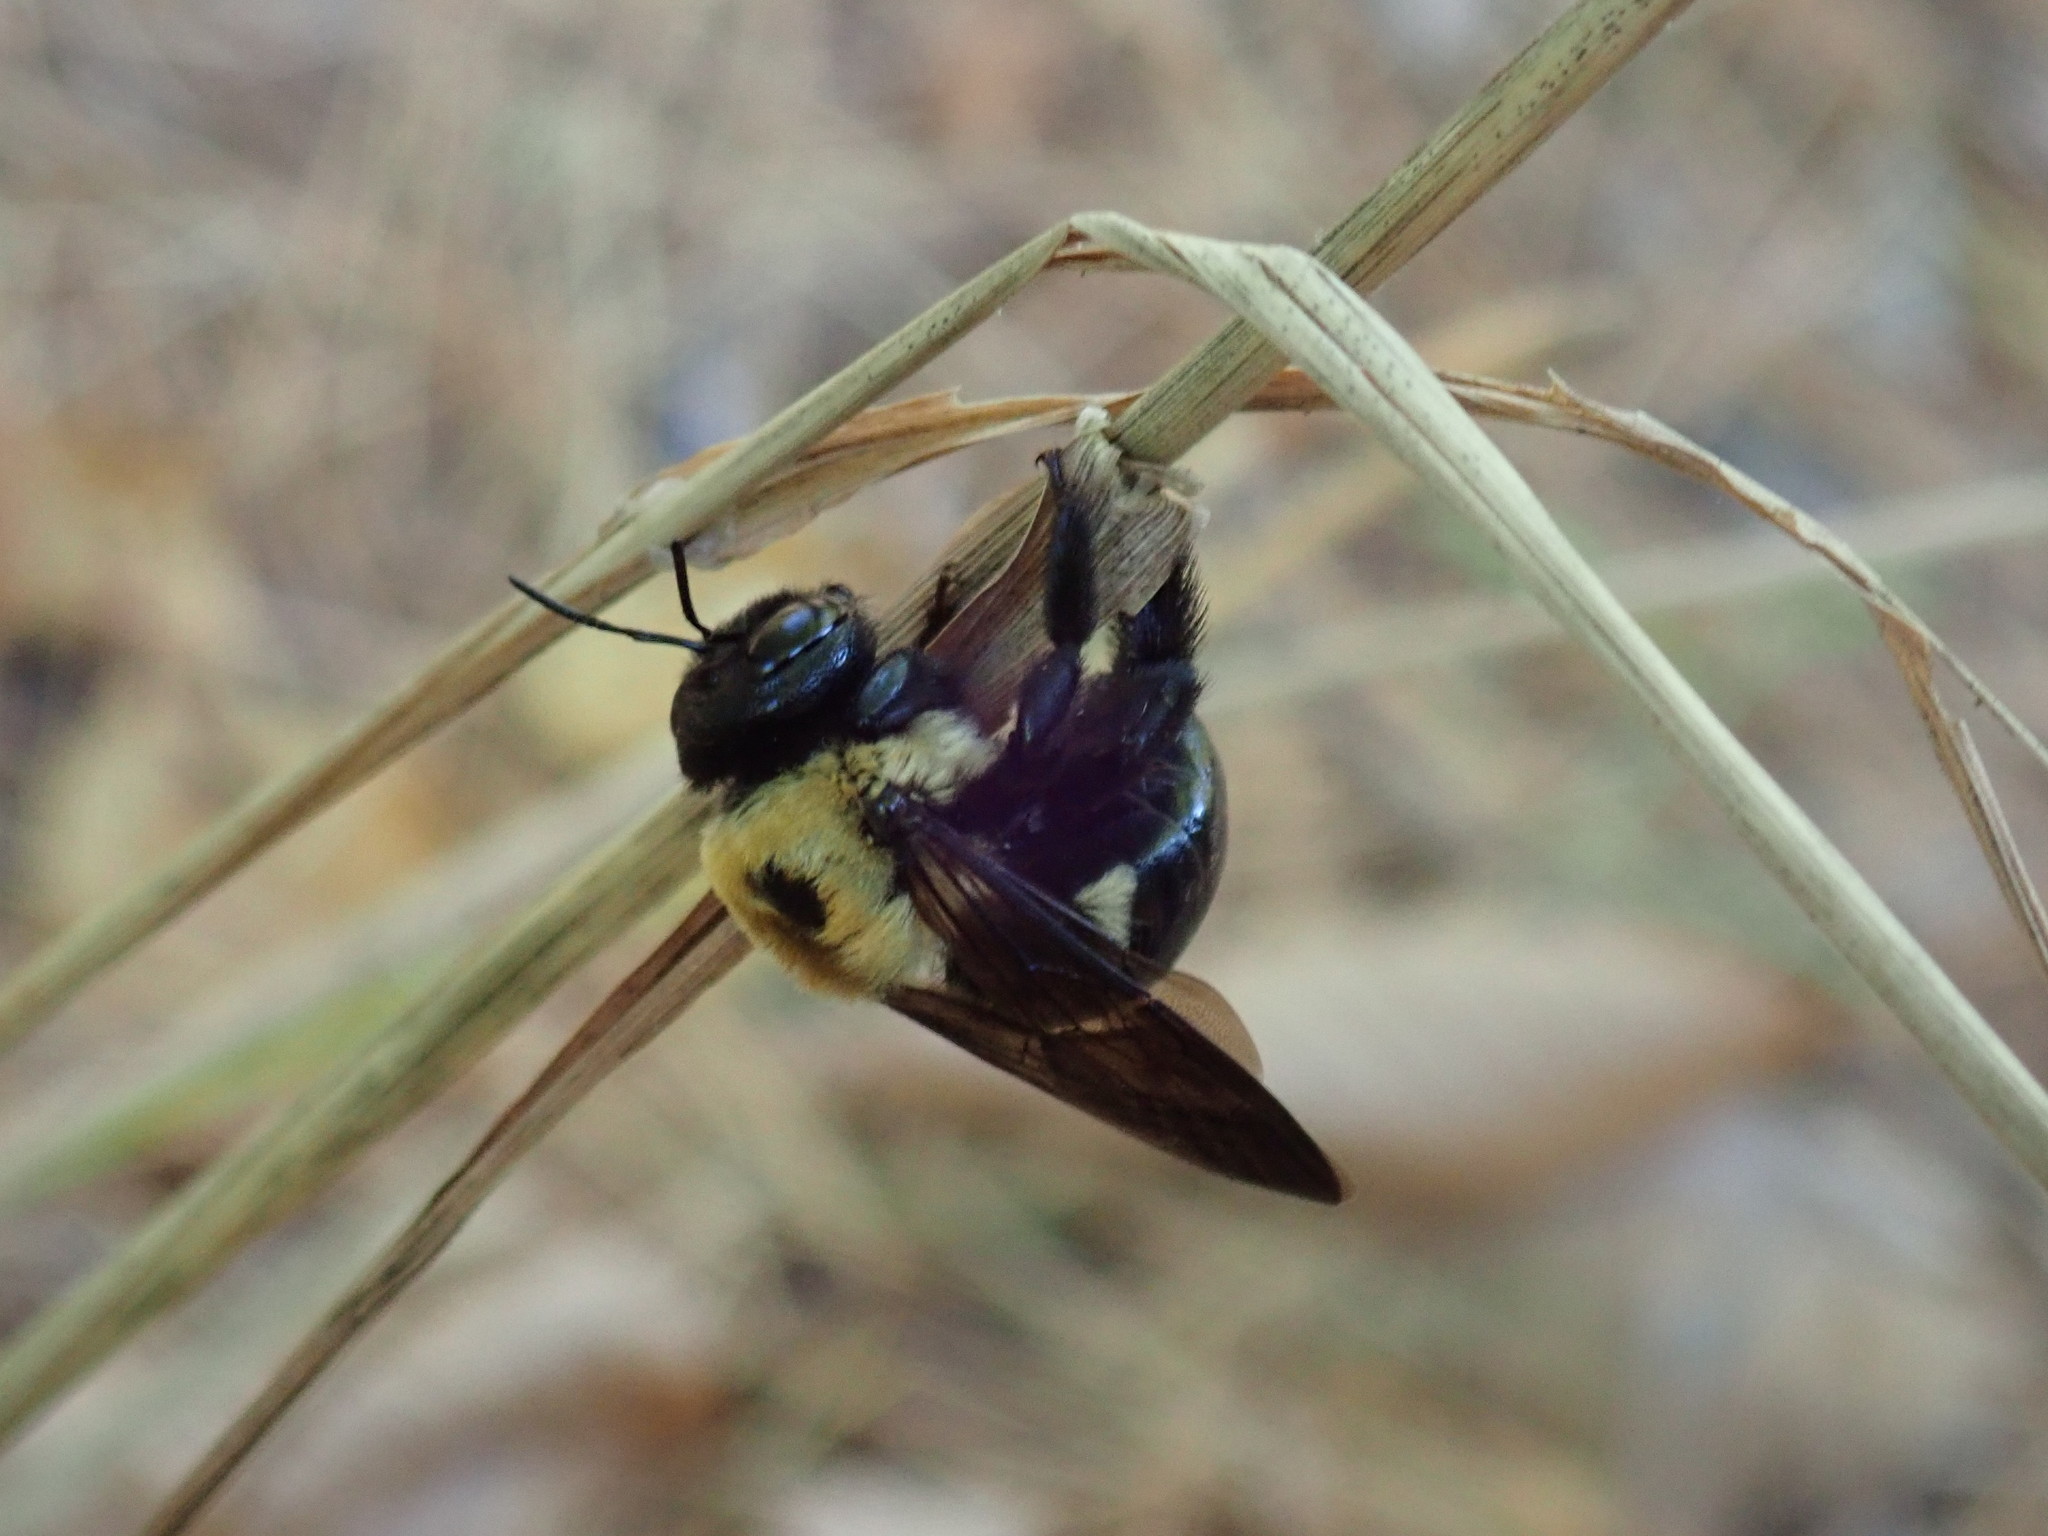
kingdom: Animalia
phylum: Arthropoda
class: Insecta
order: Hymenoptera
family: Apidae
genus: Xylocopa
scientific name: Xylocopa virginica
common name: Carpenter bee
